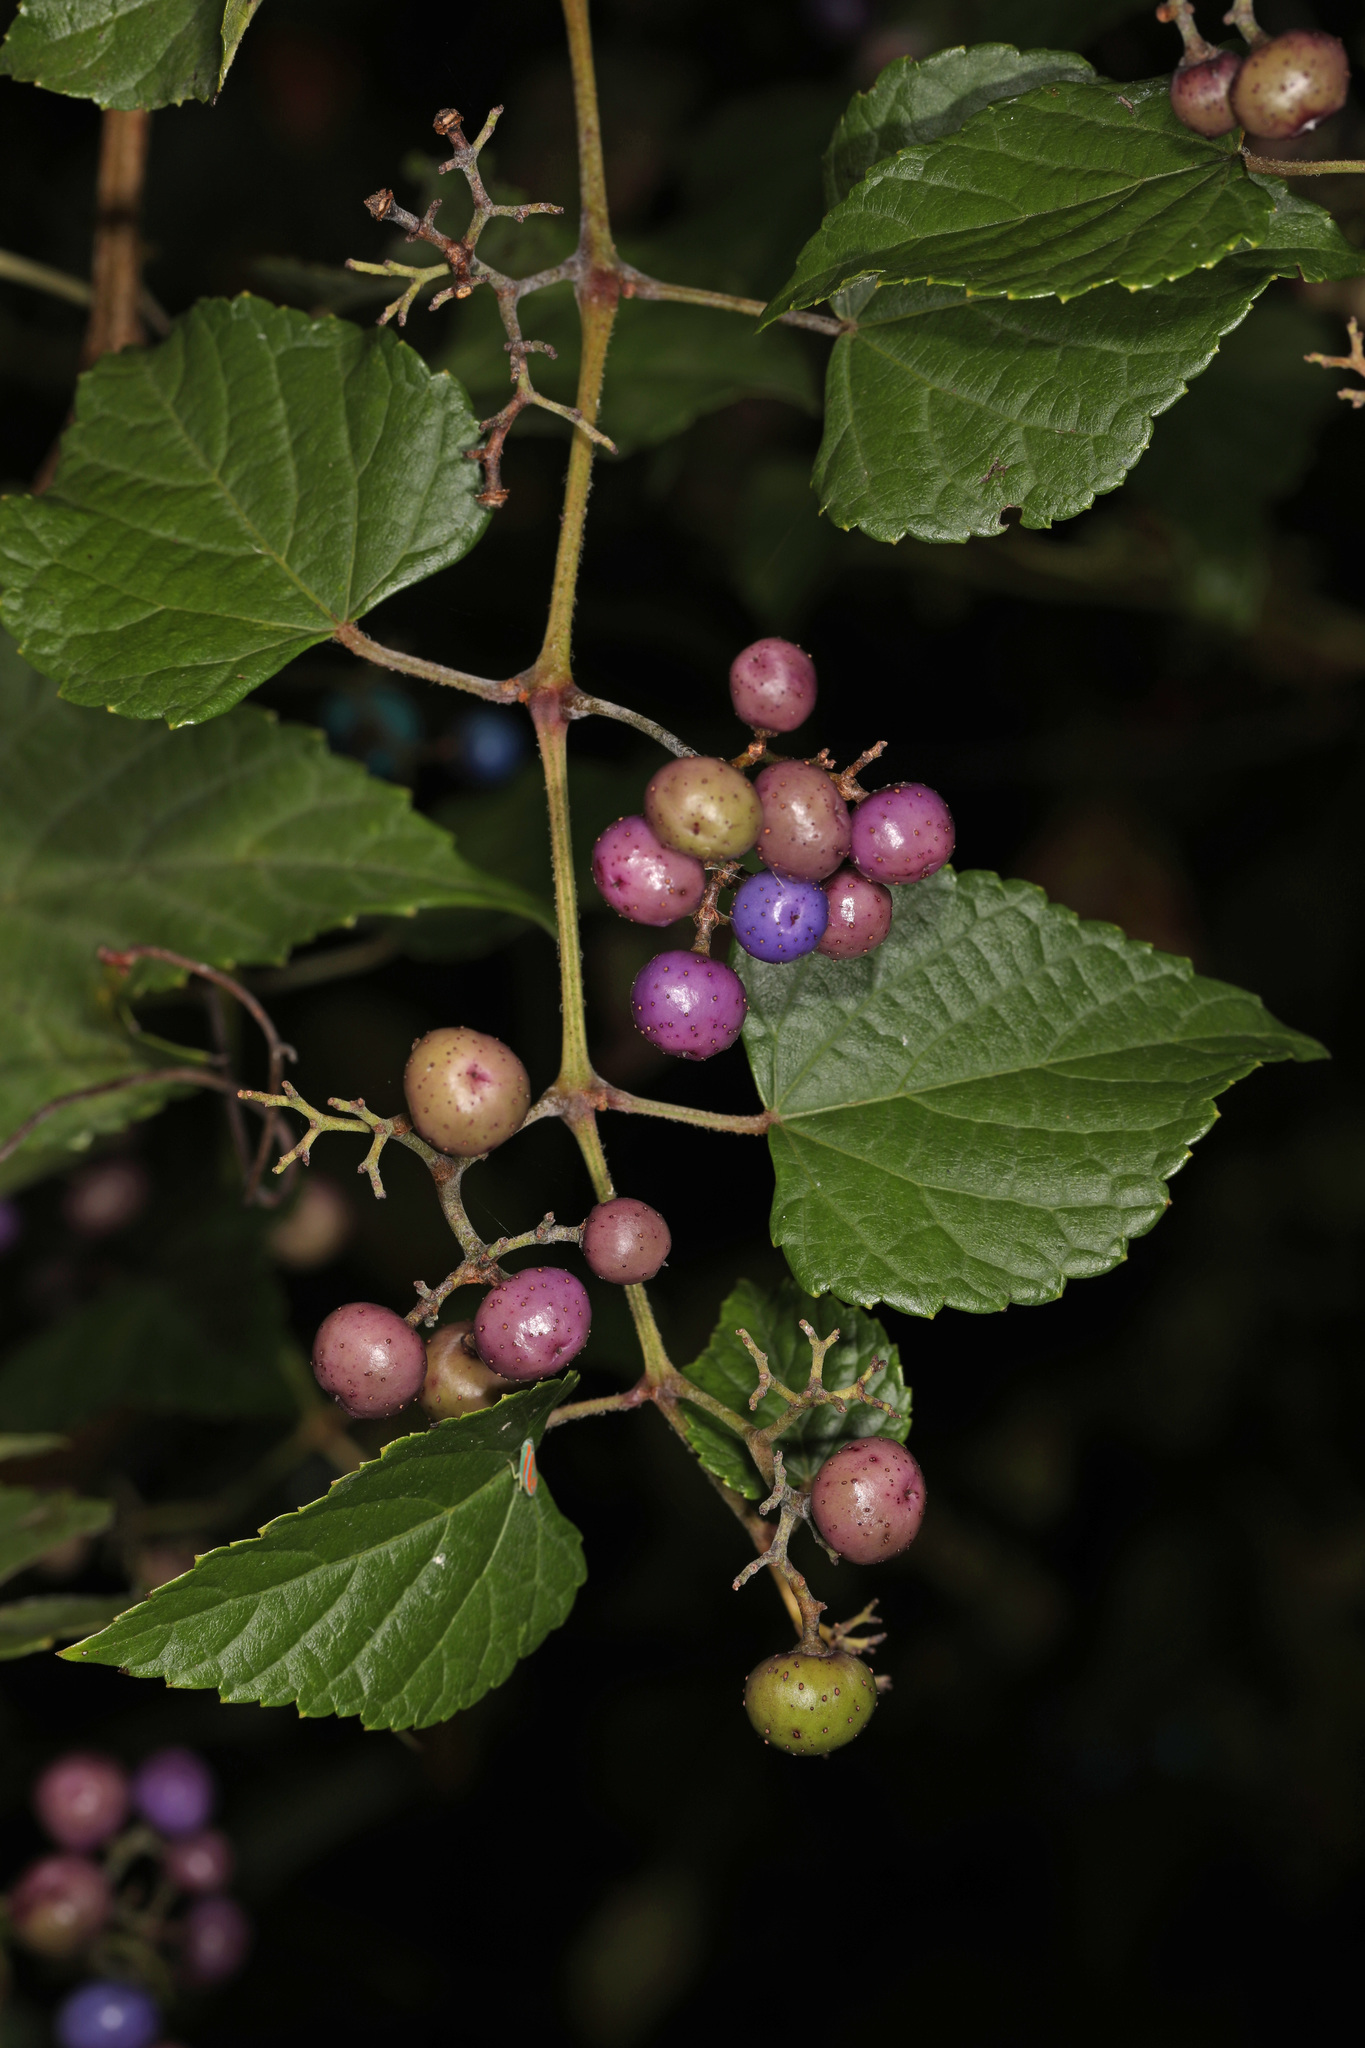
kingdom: Plantae
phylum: Tracheophyta
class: Magnoliopsida
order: Vitales
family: Vitaceae
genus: Ampelopsis
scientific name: Ampelopsis glandulosa
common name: Amur peppervine
